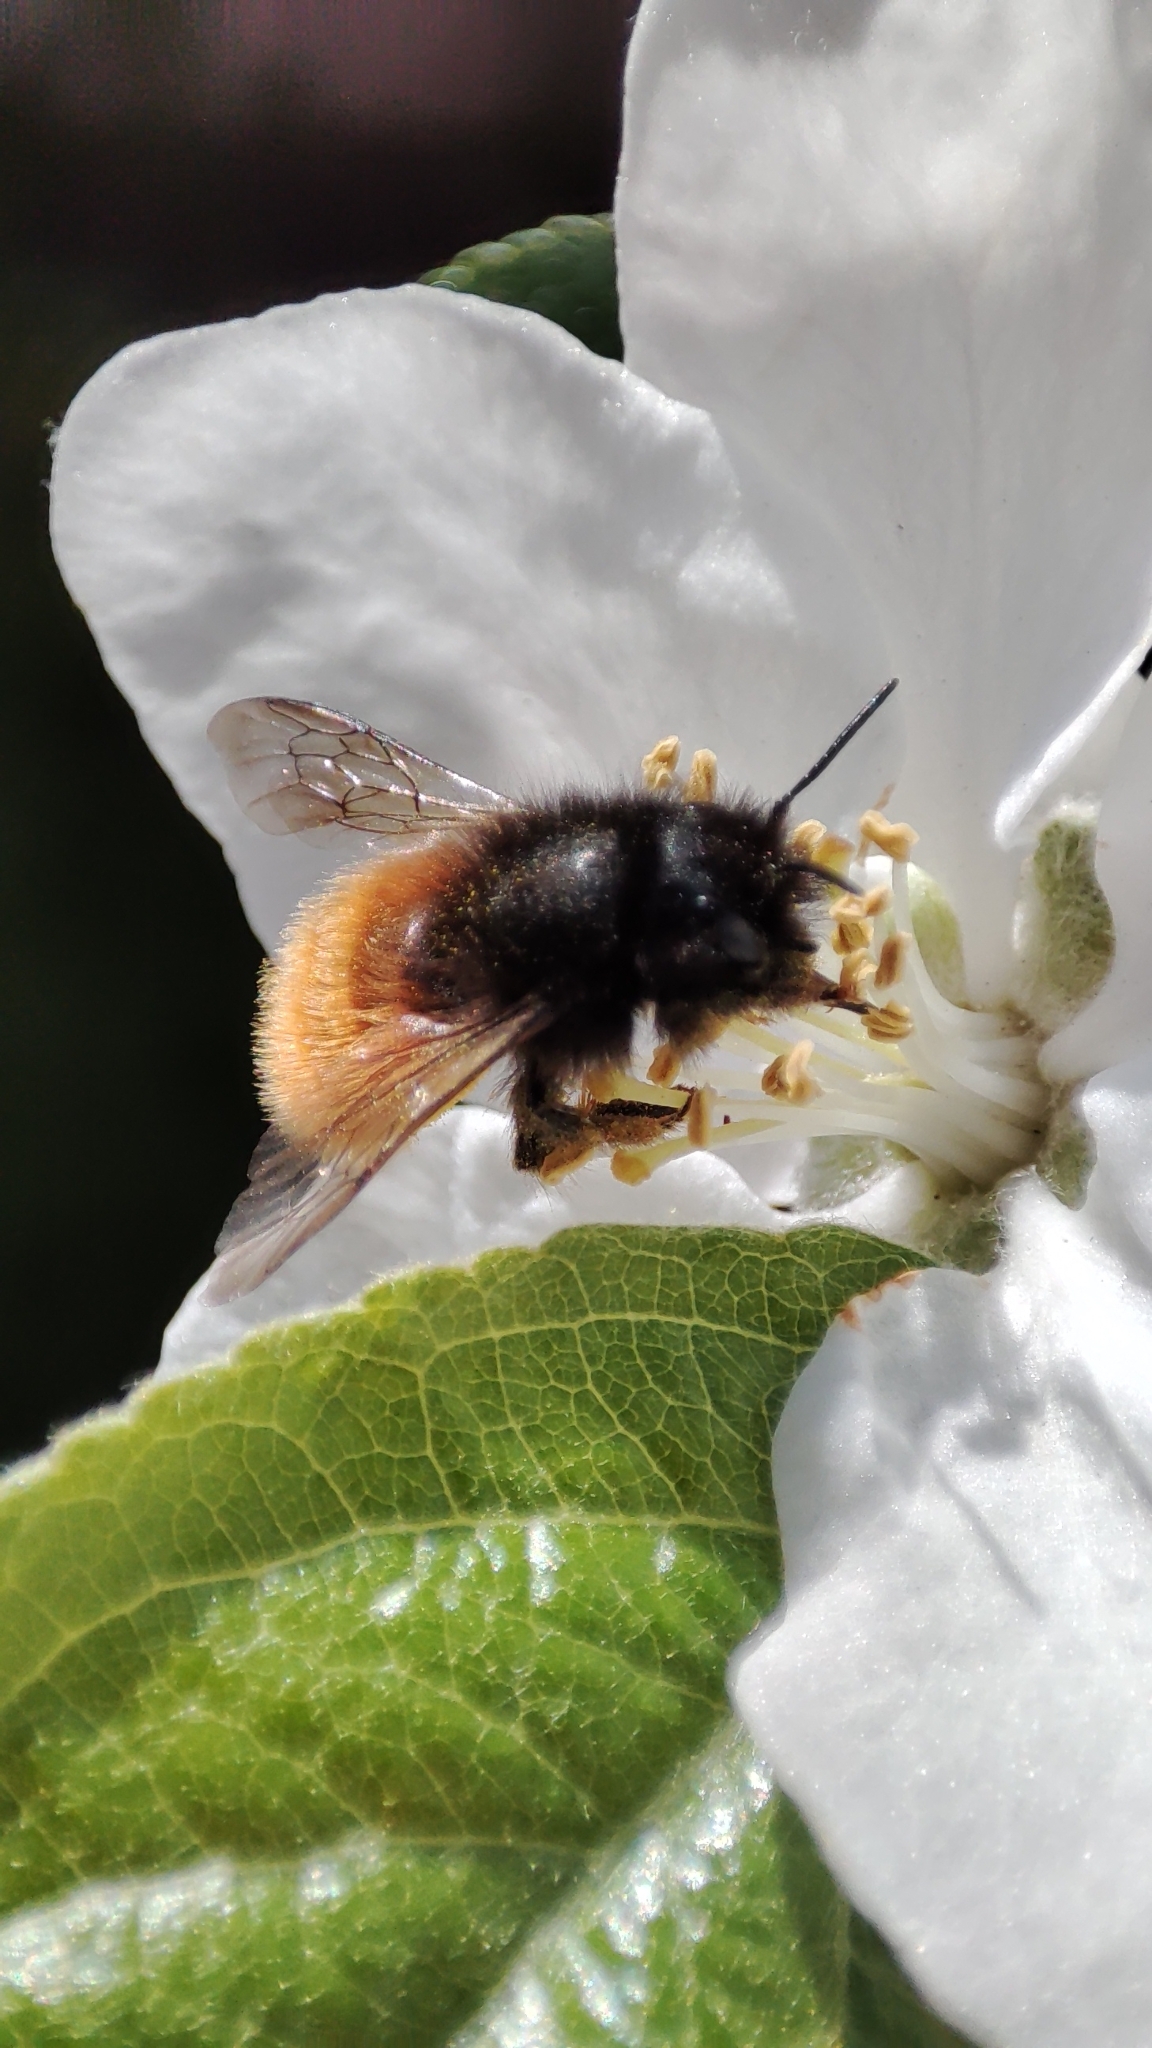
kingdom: Animalia
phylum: Arthropoda
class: Insecta
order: Hymenoptera
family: Megachilidae
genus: Osmia
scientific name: Osmia cornuta
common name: Mason bee
